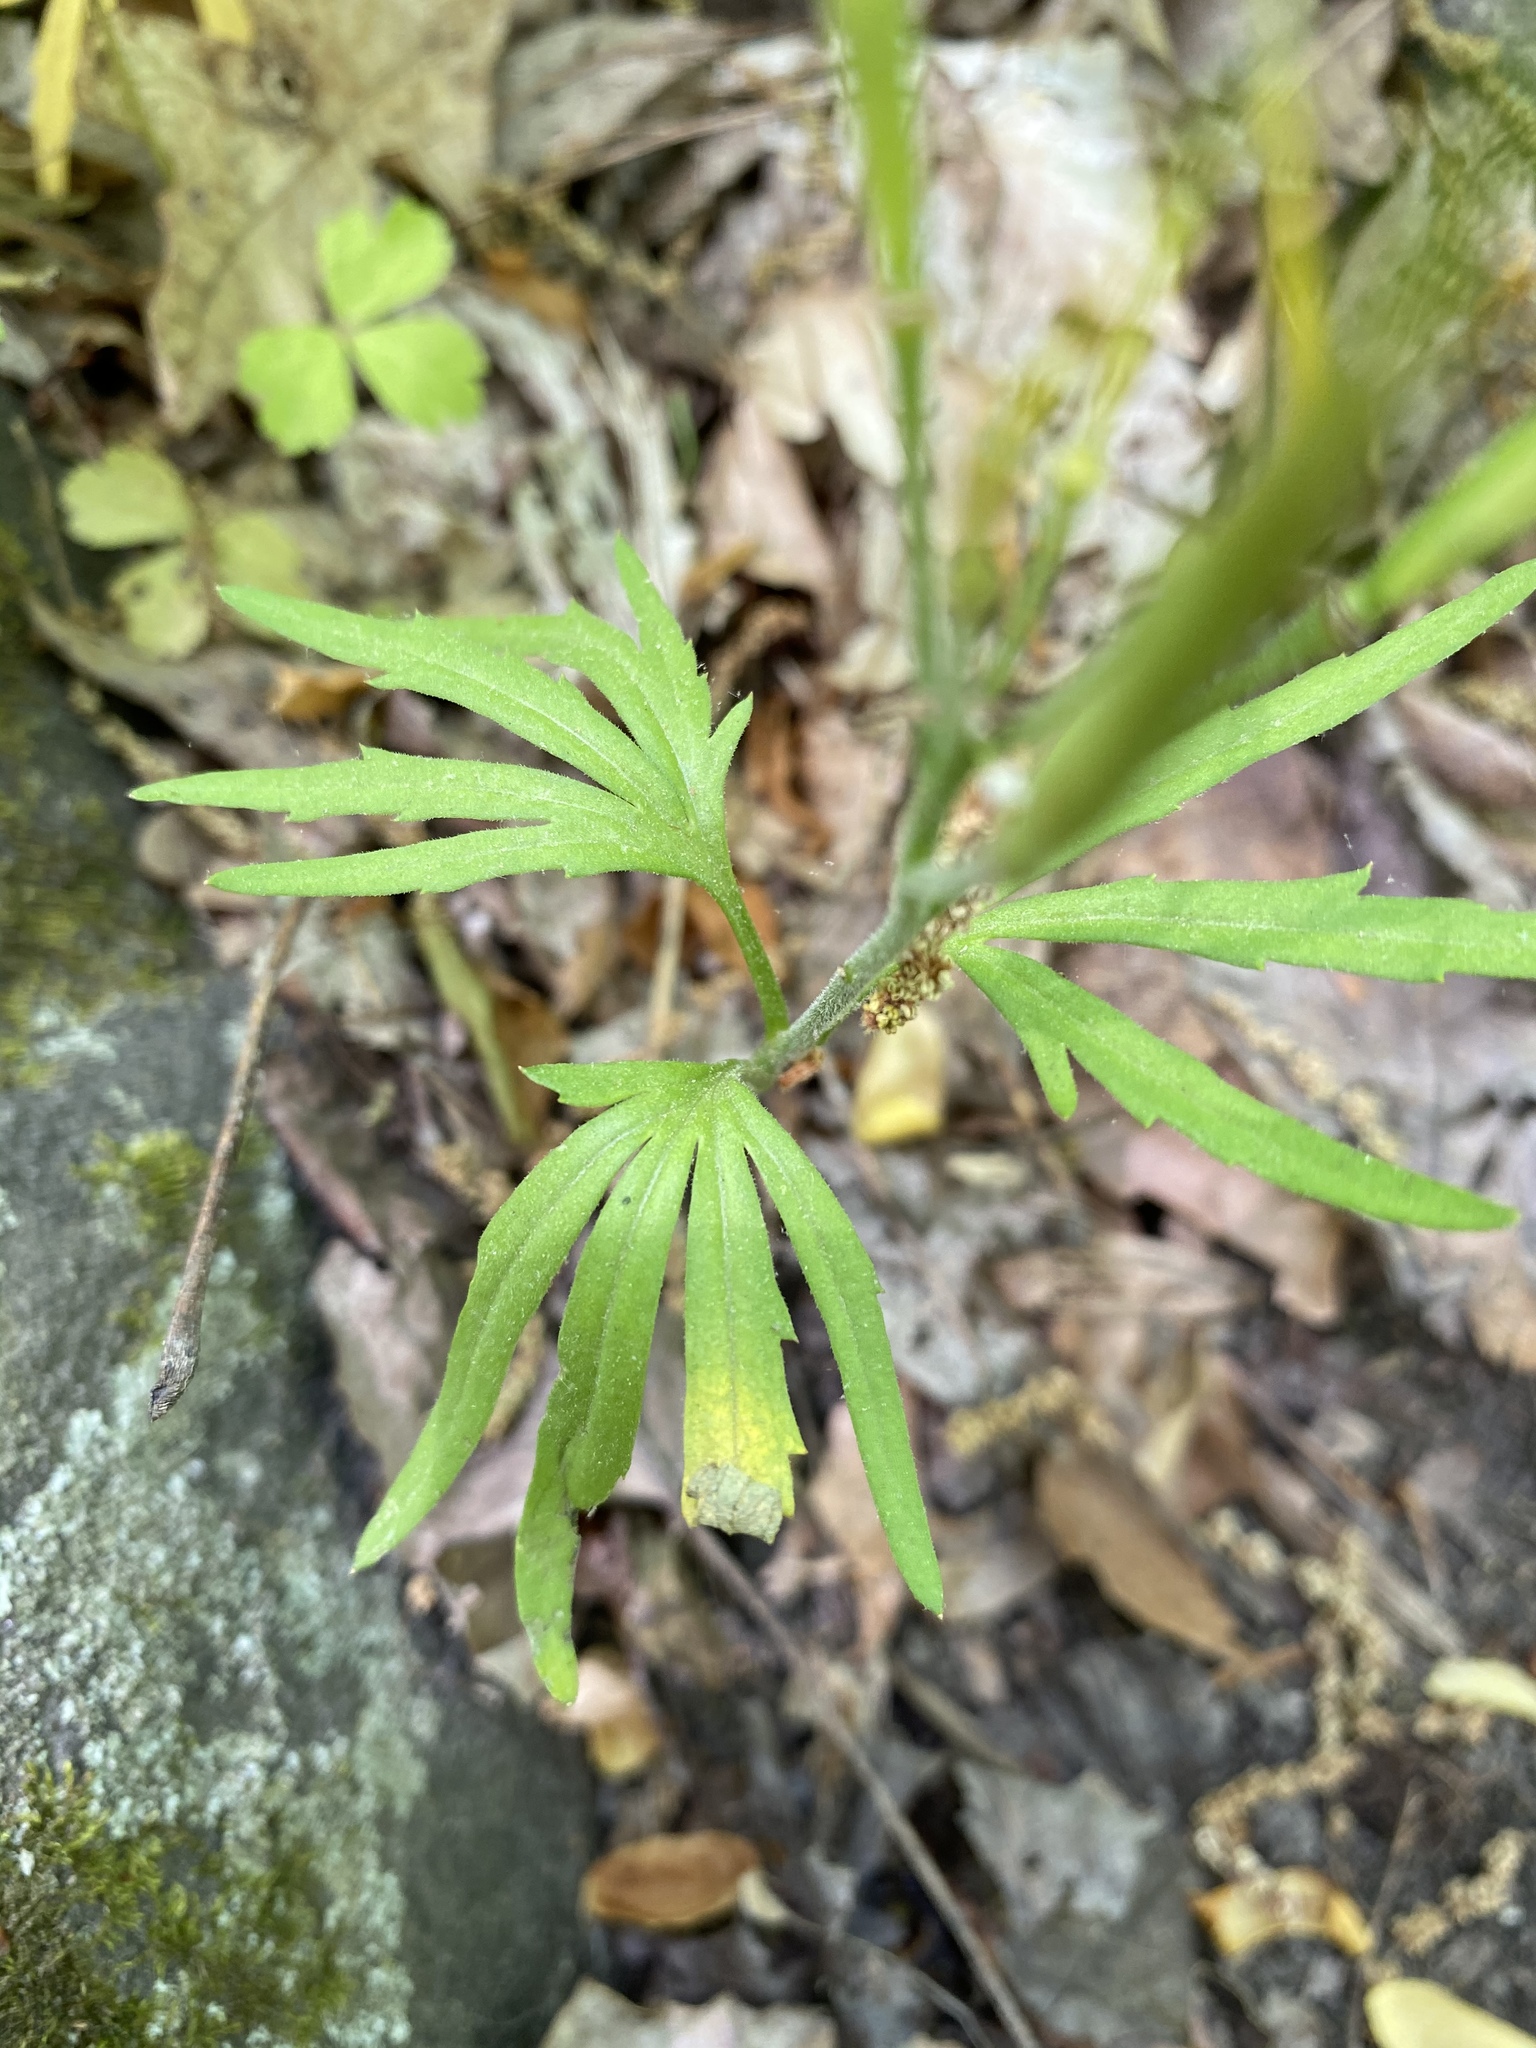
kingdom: Plantae
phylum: Tracheophyta
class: Magnoliopsida
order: Brassicales
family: Brassicaceae
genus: Cardamine
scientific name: Cardamine concatenata
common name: Cut-leaf toothcup
